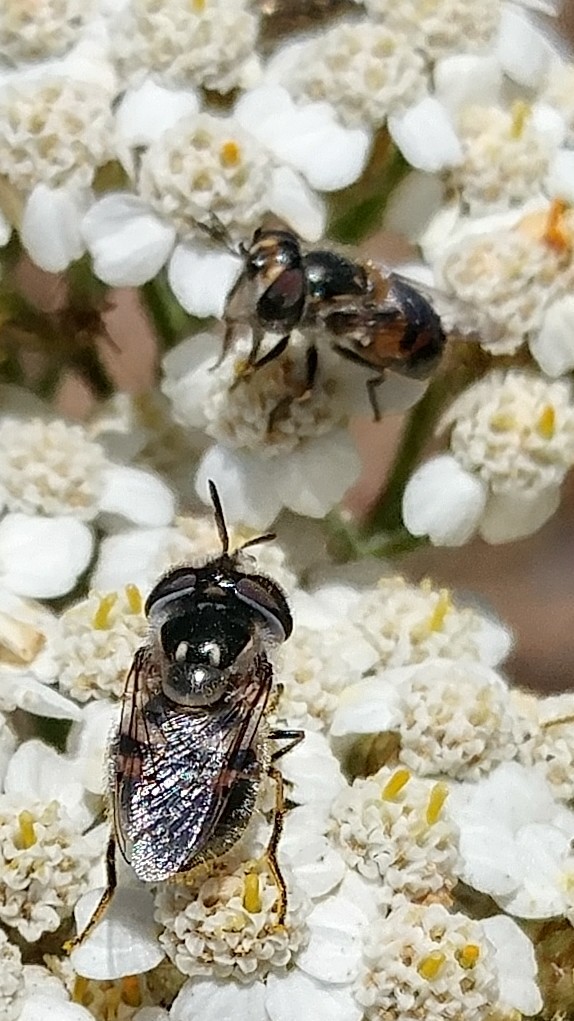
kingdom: Animalia
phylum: Arthropoda
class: Insecta
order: Diptera
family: Syrphidae
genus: Copestylum
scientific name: Copestylum lentum
